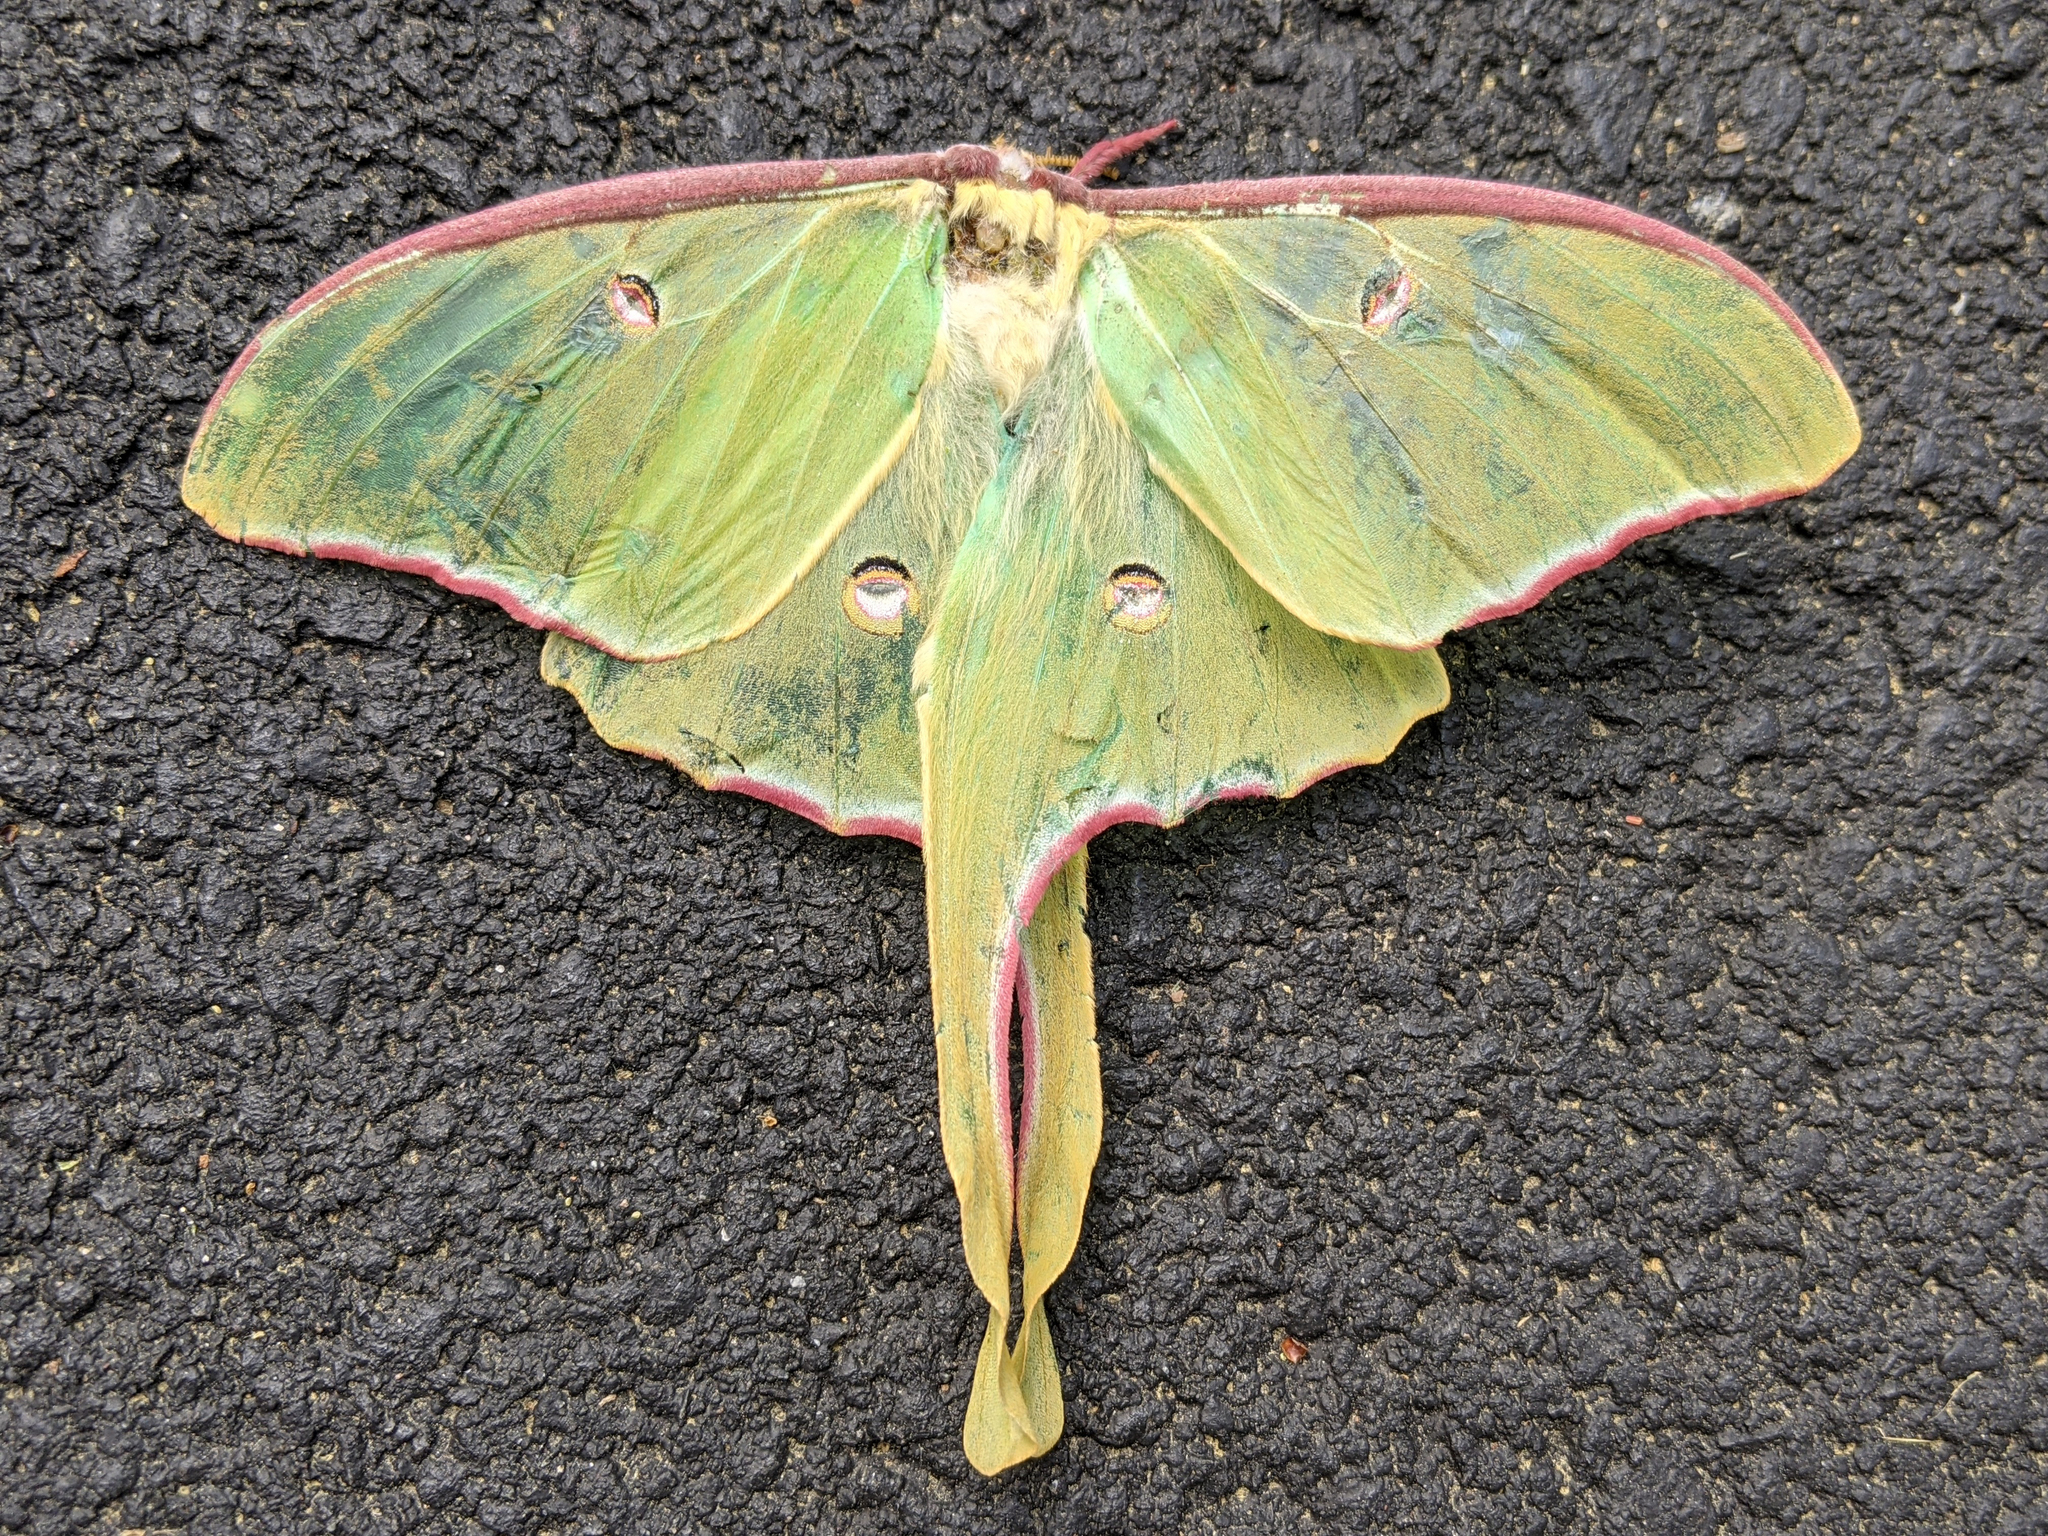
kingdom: Animalia
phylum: Arthropoda
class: Insecta
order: Lepidoptera
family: Saturniidae
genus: Actias
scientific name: Actias luna
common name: Luna moth
